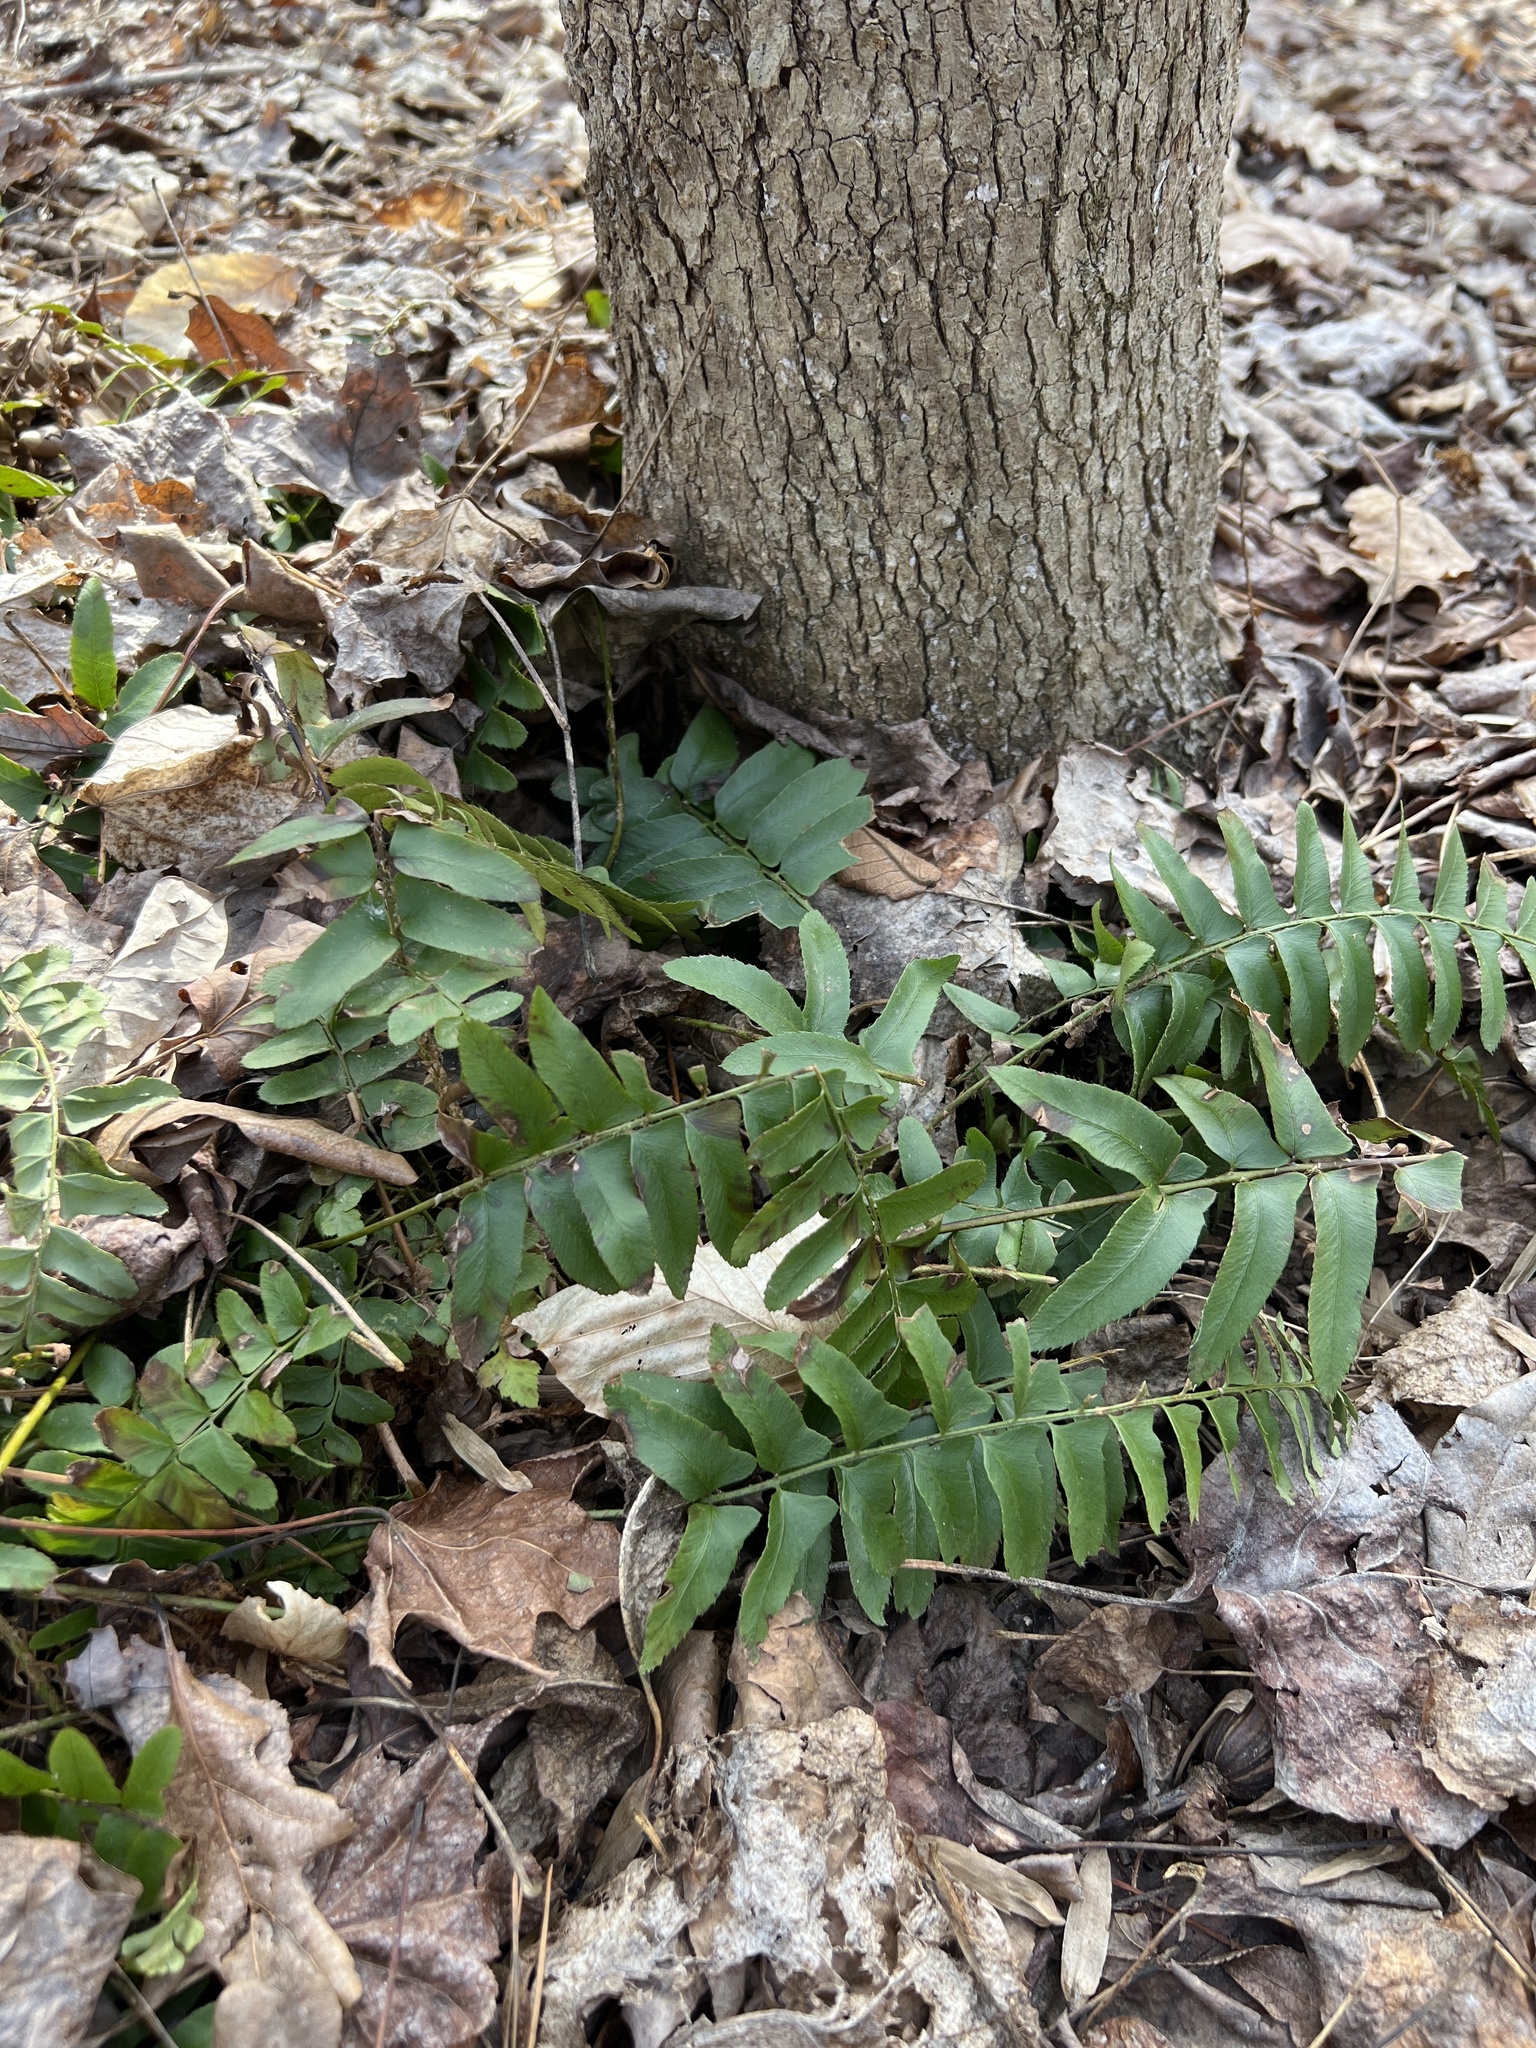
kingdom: Plantae
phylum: Tracheophyta
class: Polypodiopsida
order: Polypodiales
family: Dryopteridaceae
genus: Polystichum
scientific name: Polystichum acrostichoides
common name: Christmas fern
